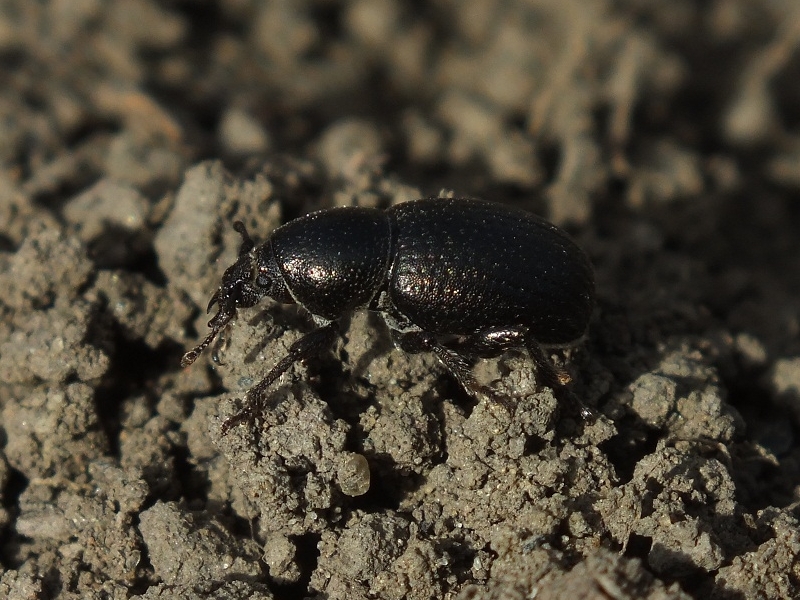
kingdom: Animalia
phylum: Arthropoda
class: Insecta
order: Coleoptera
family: Curculionidae
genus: Psallidium
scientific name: Psallidium maxillosum
